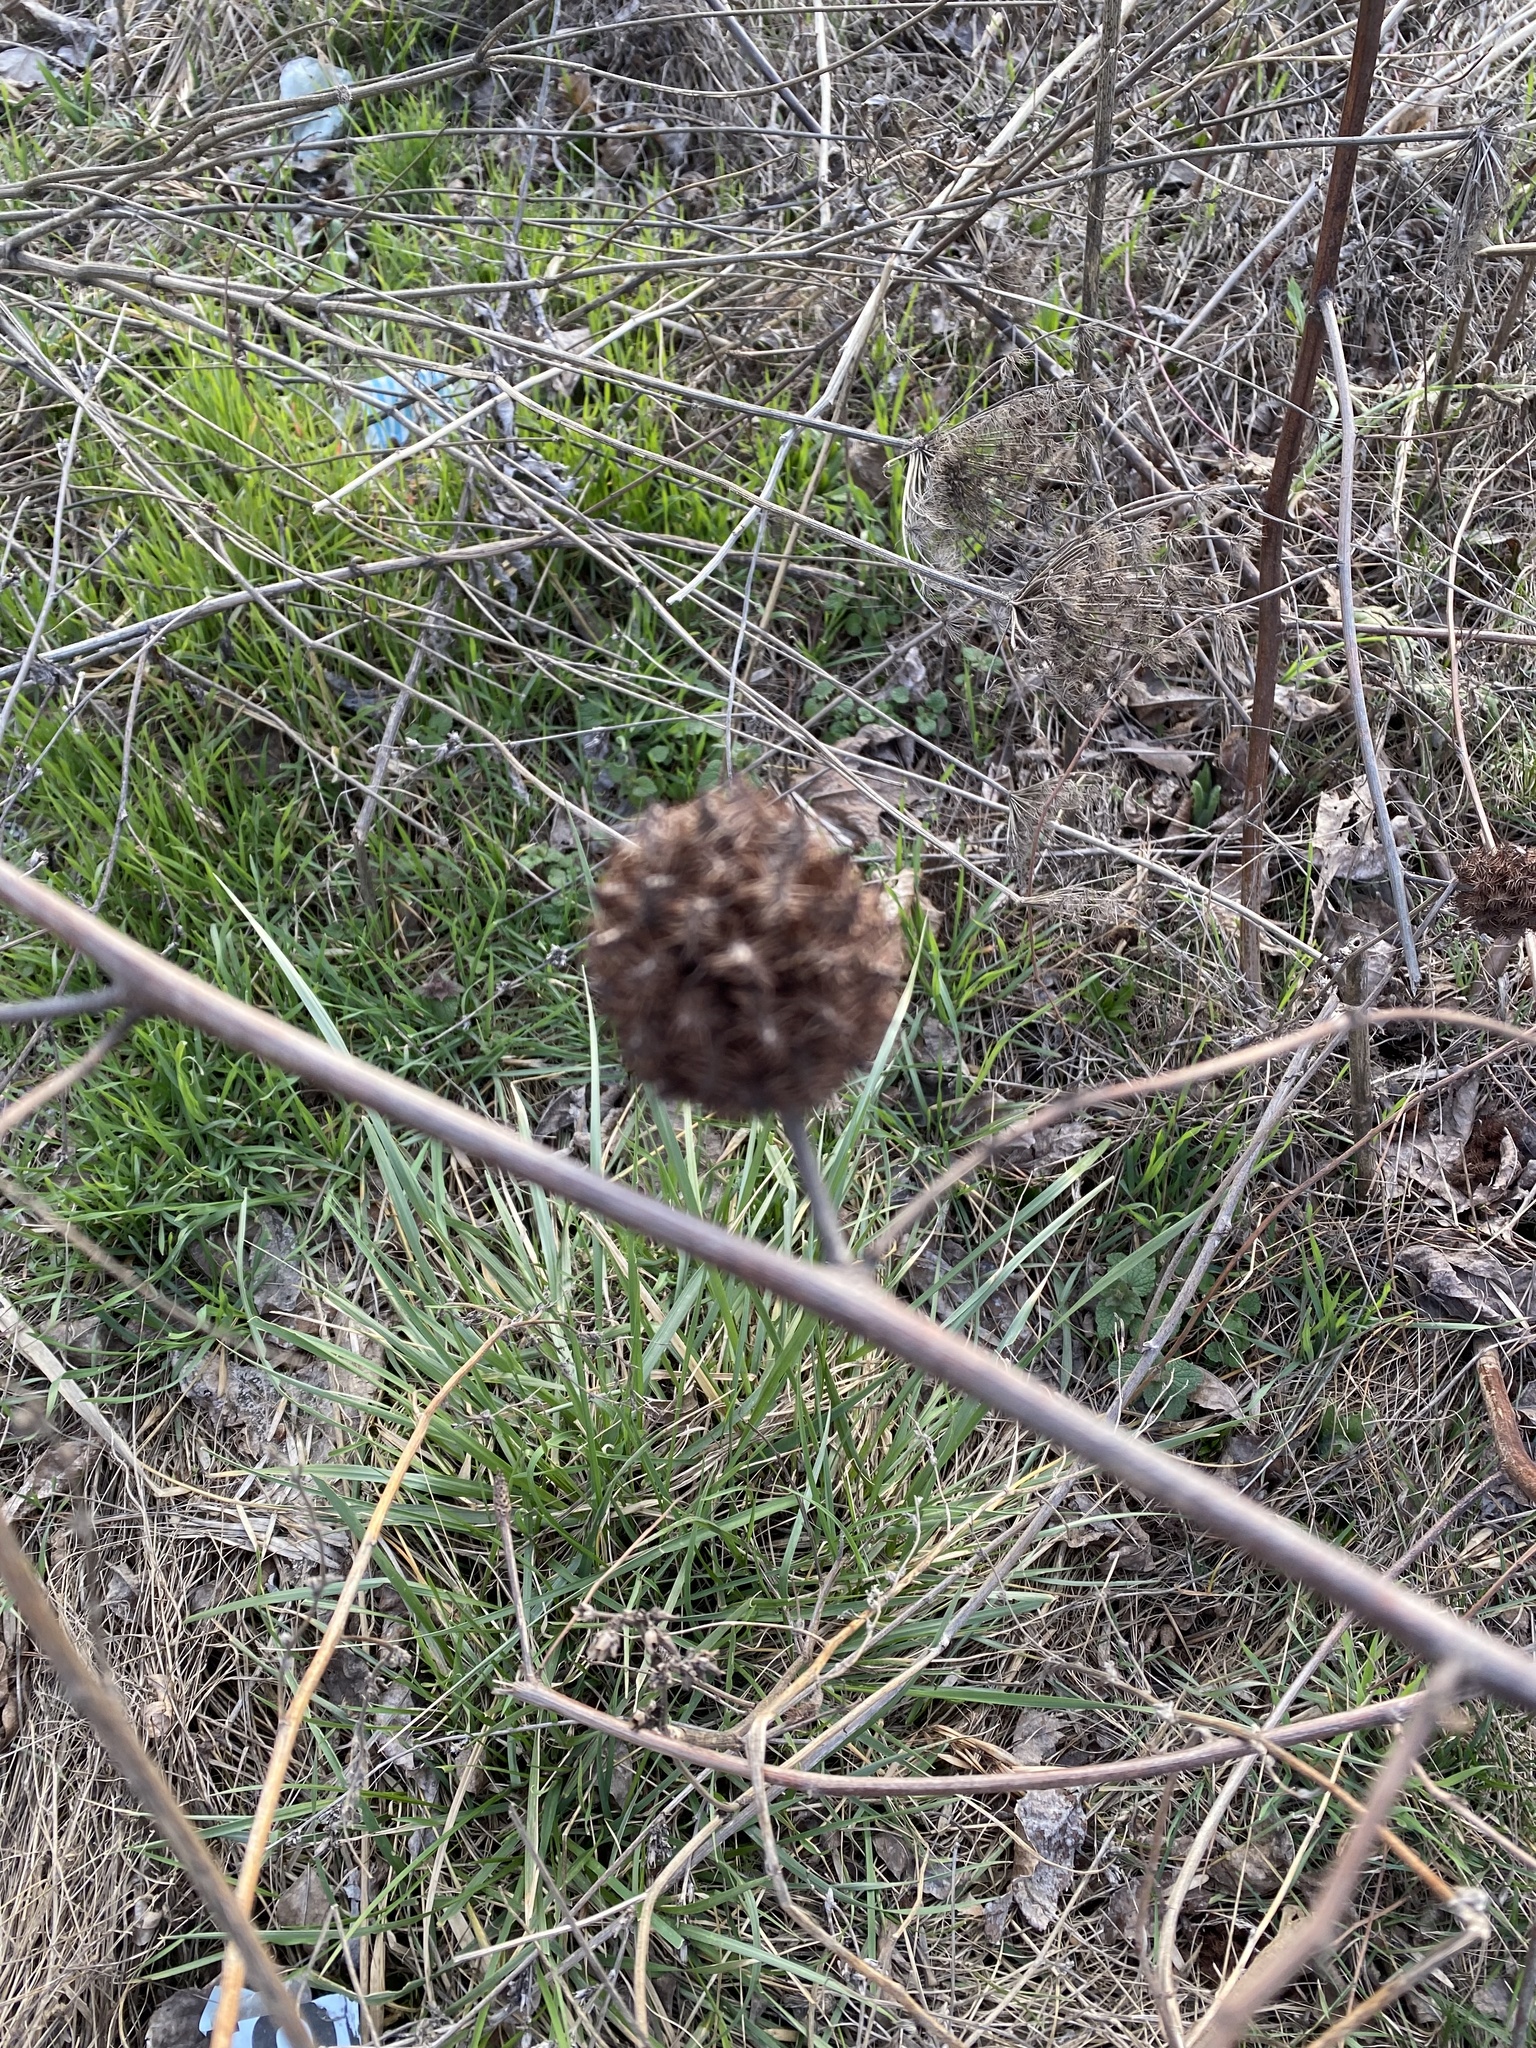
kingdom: Plantae
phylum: Tracheophyta
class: Magnoliopsida
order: Fabales
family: Fabaceae
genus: Glycyrrhiza
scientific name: Glycyrrhiza echinata
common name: German liquorice
